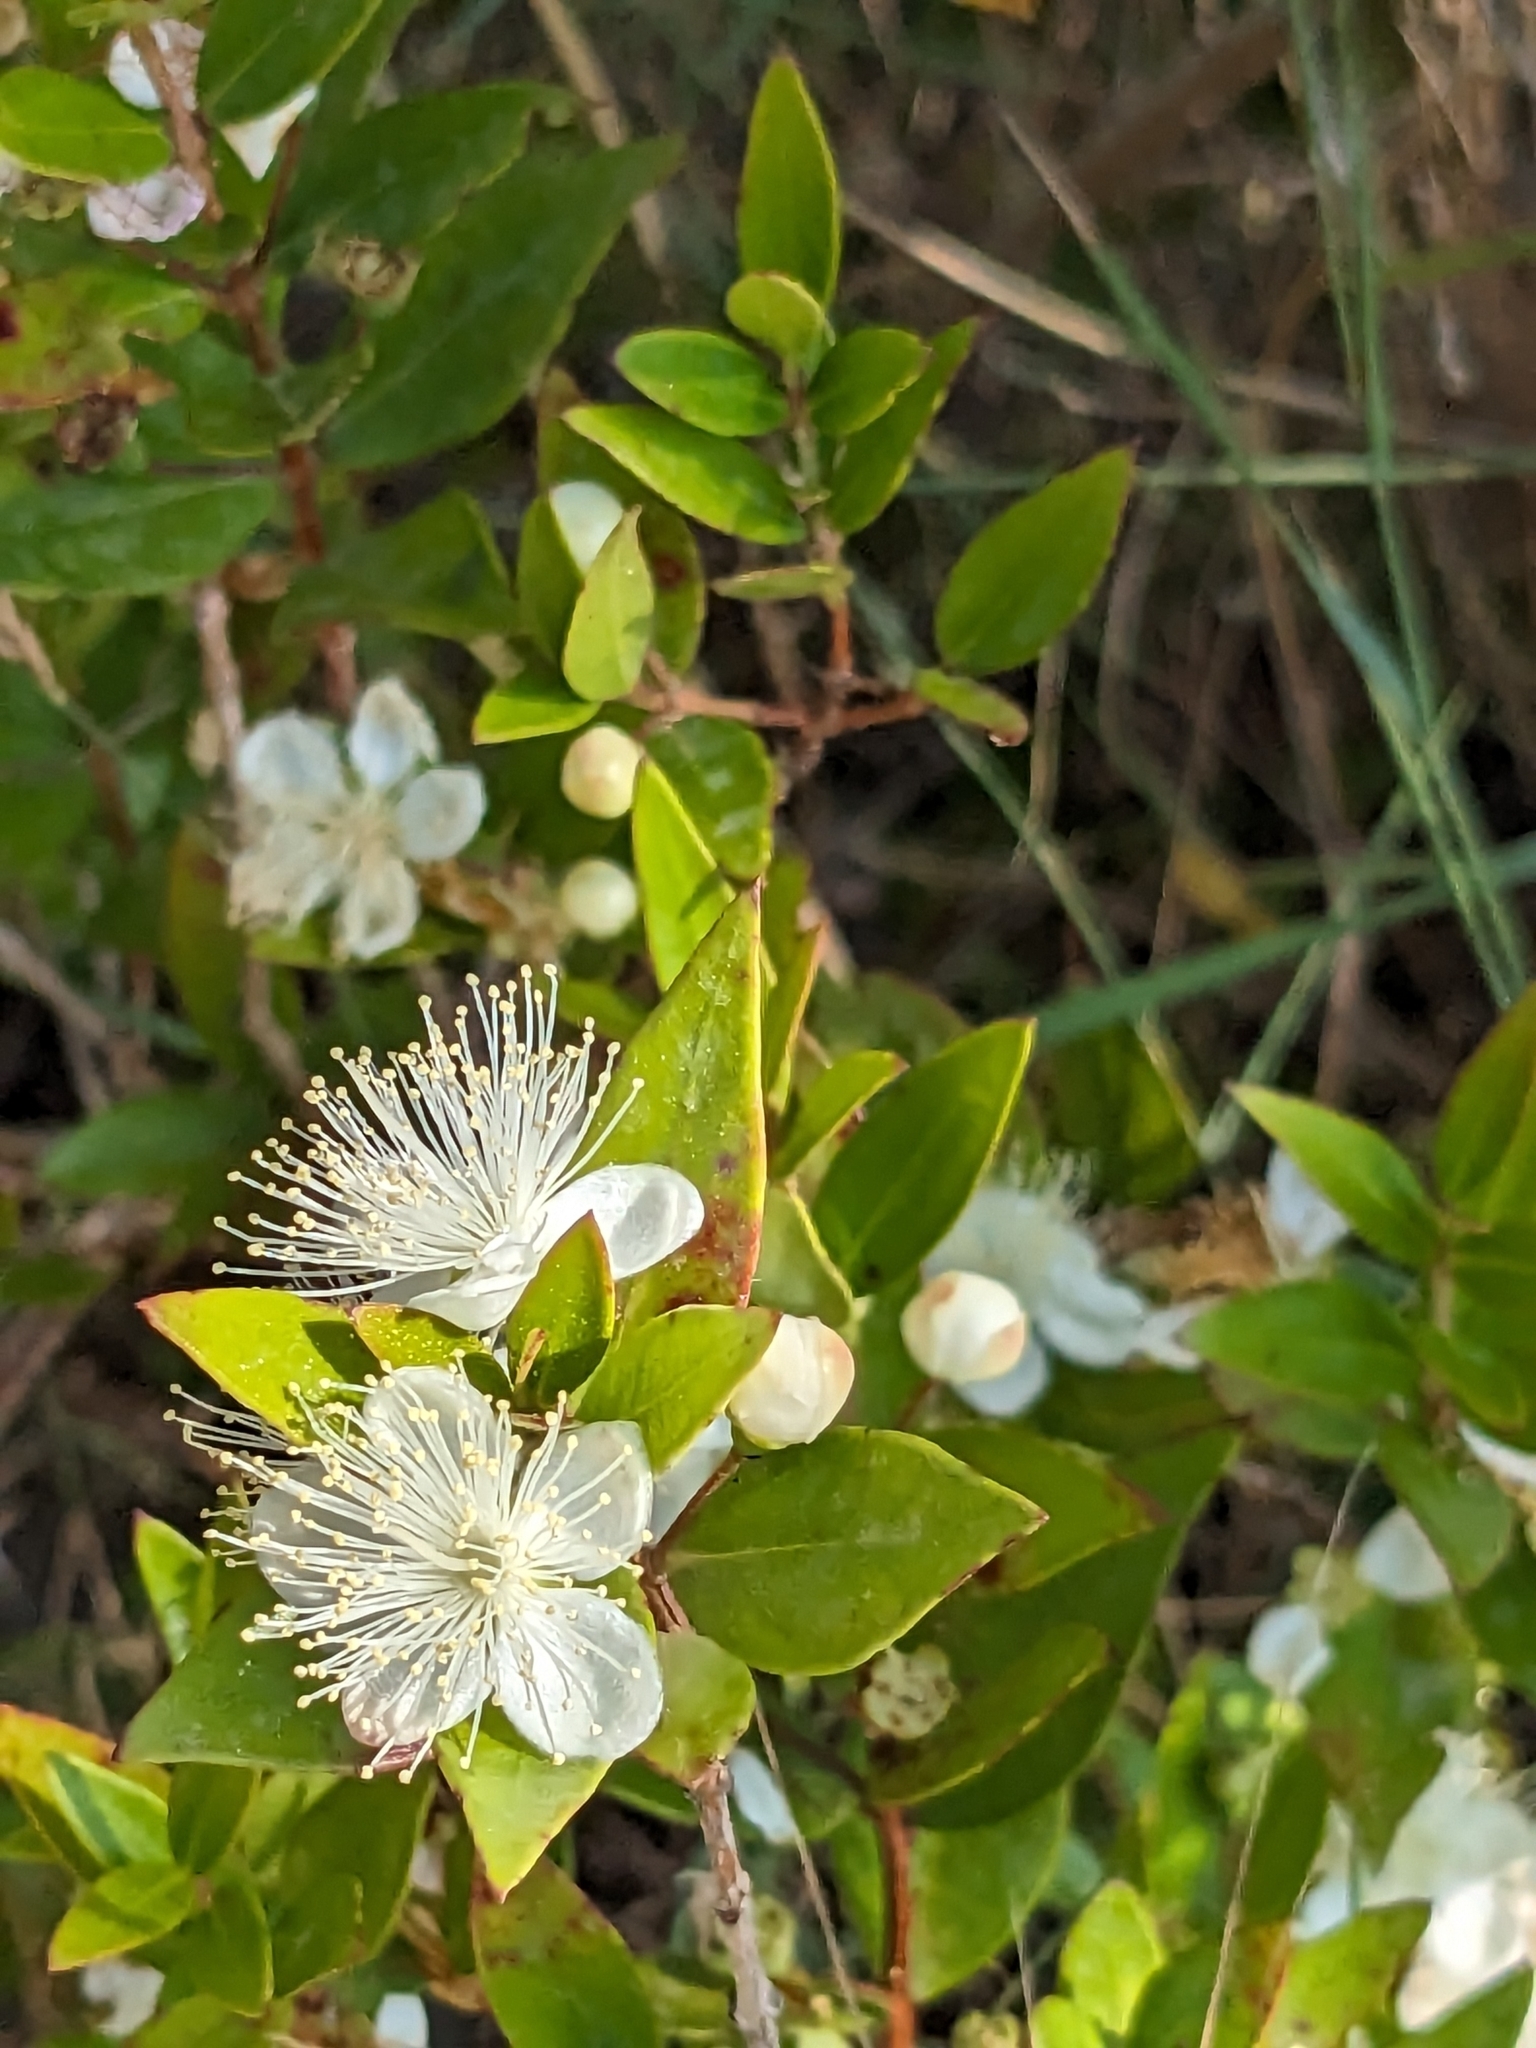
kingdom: Plantae
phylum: Tracheophyta
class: Magnoliopsida
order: Myrtales
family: Myrtaceae
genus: Myrtus
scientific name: Myrtus communis
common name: Myrtle
